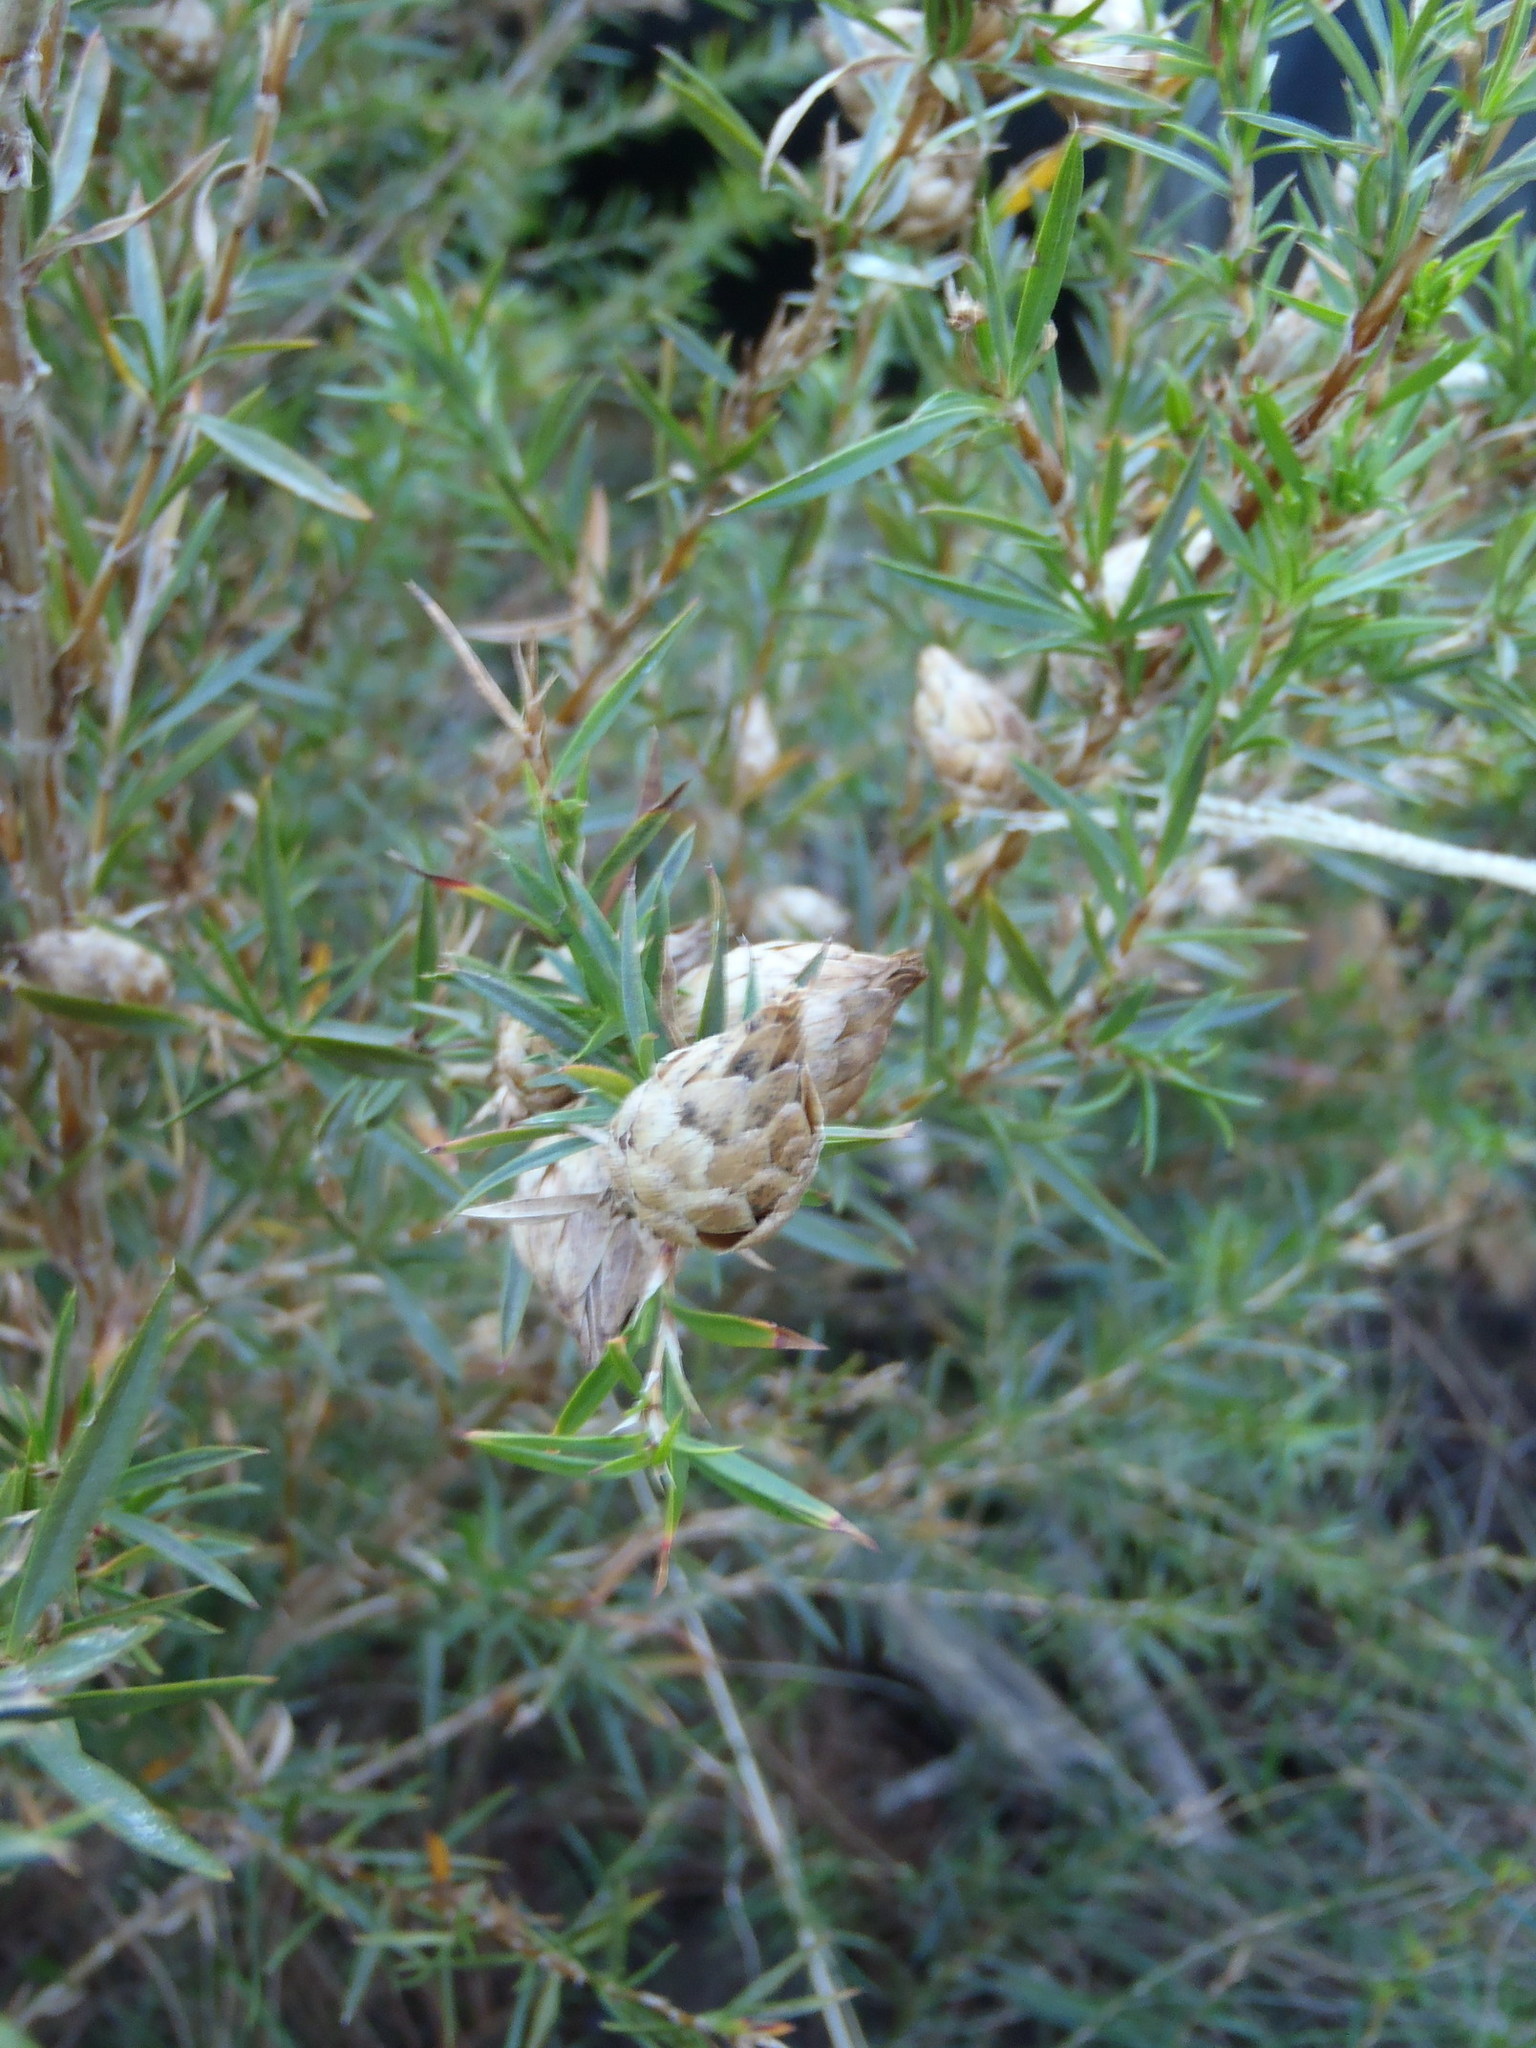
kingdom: Plantae
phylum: Tracheophyta
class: Magnoliopsida
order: Rosales
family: Rosaceae
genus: Cliffortia
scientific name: Cliffortia strobilifera
